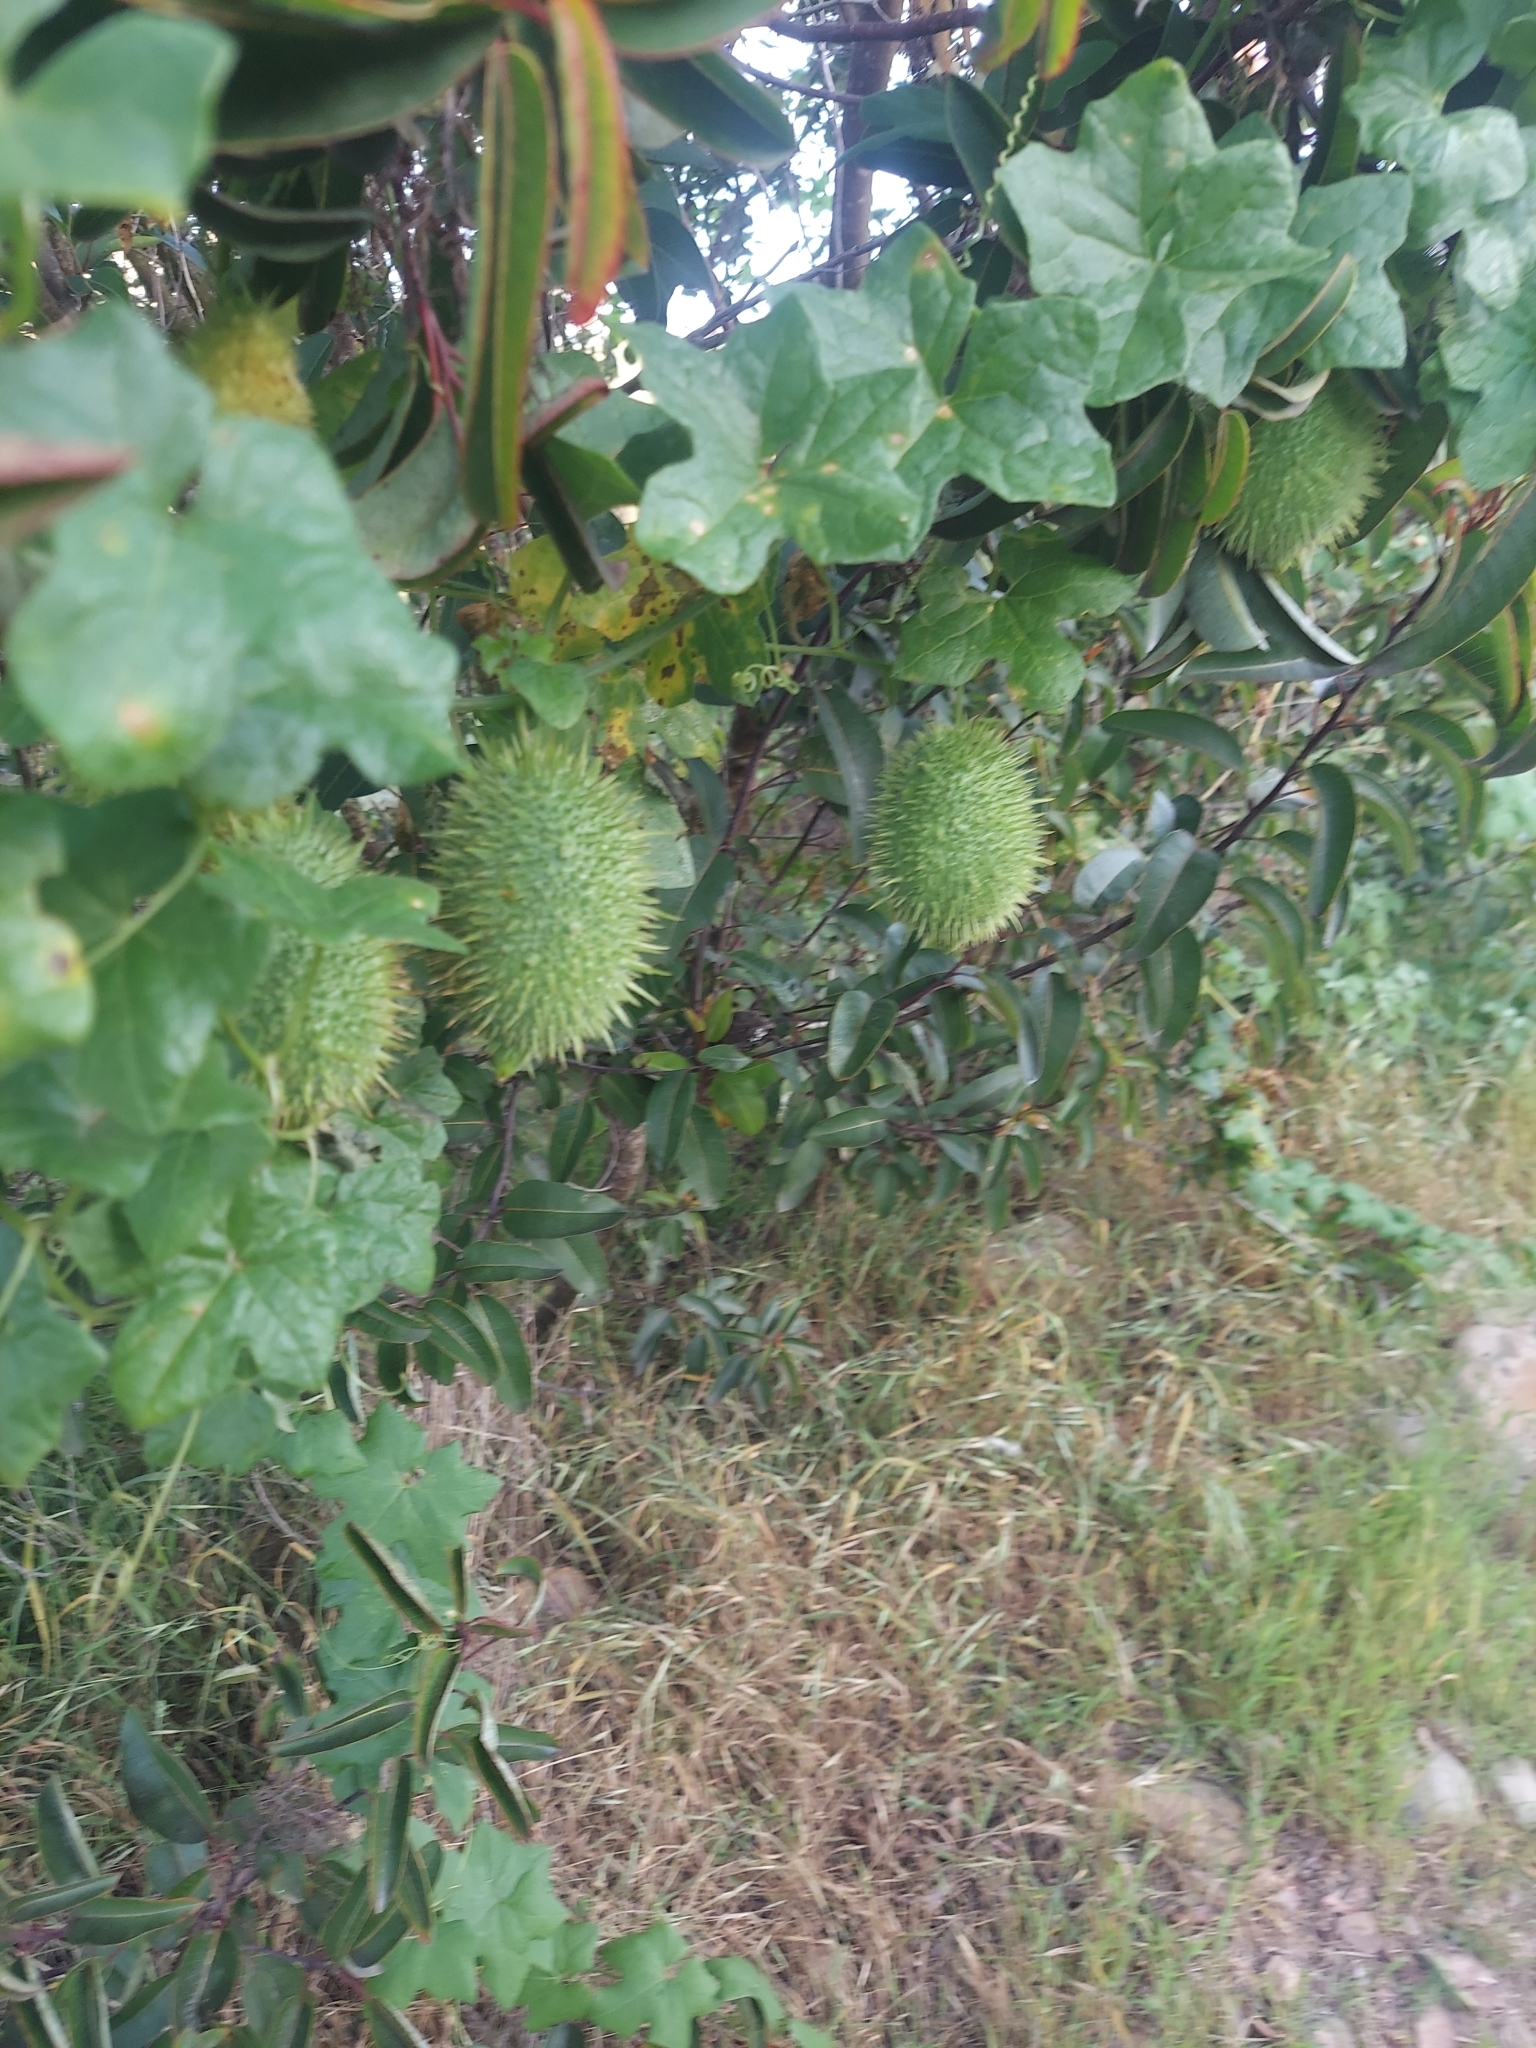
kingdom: Plantae
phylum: Tracheophyta
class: Magnoliopsida
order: Cucurbitales
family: Cucurbitaceae
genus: Marah
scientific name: Marah macrocarpa
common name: Cucamonga manroot
